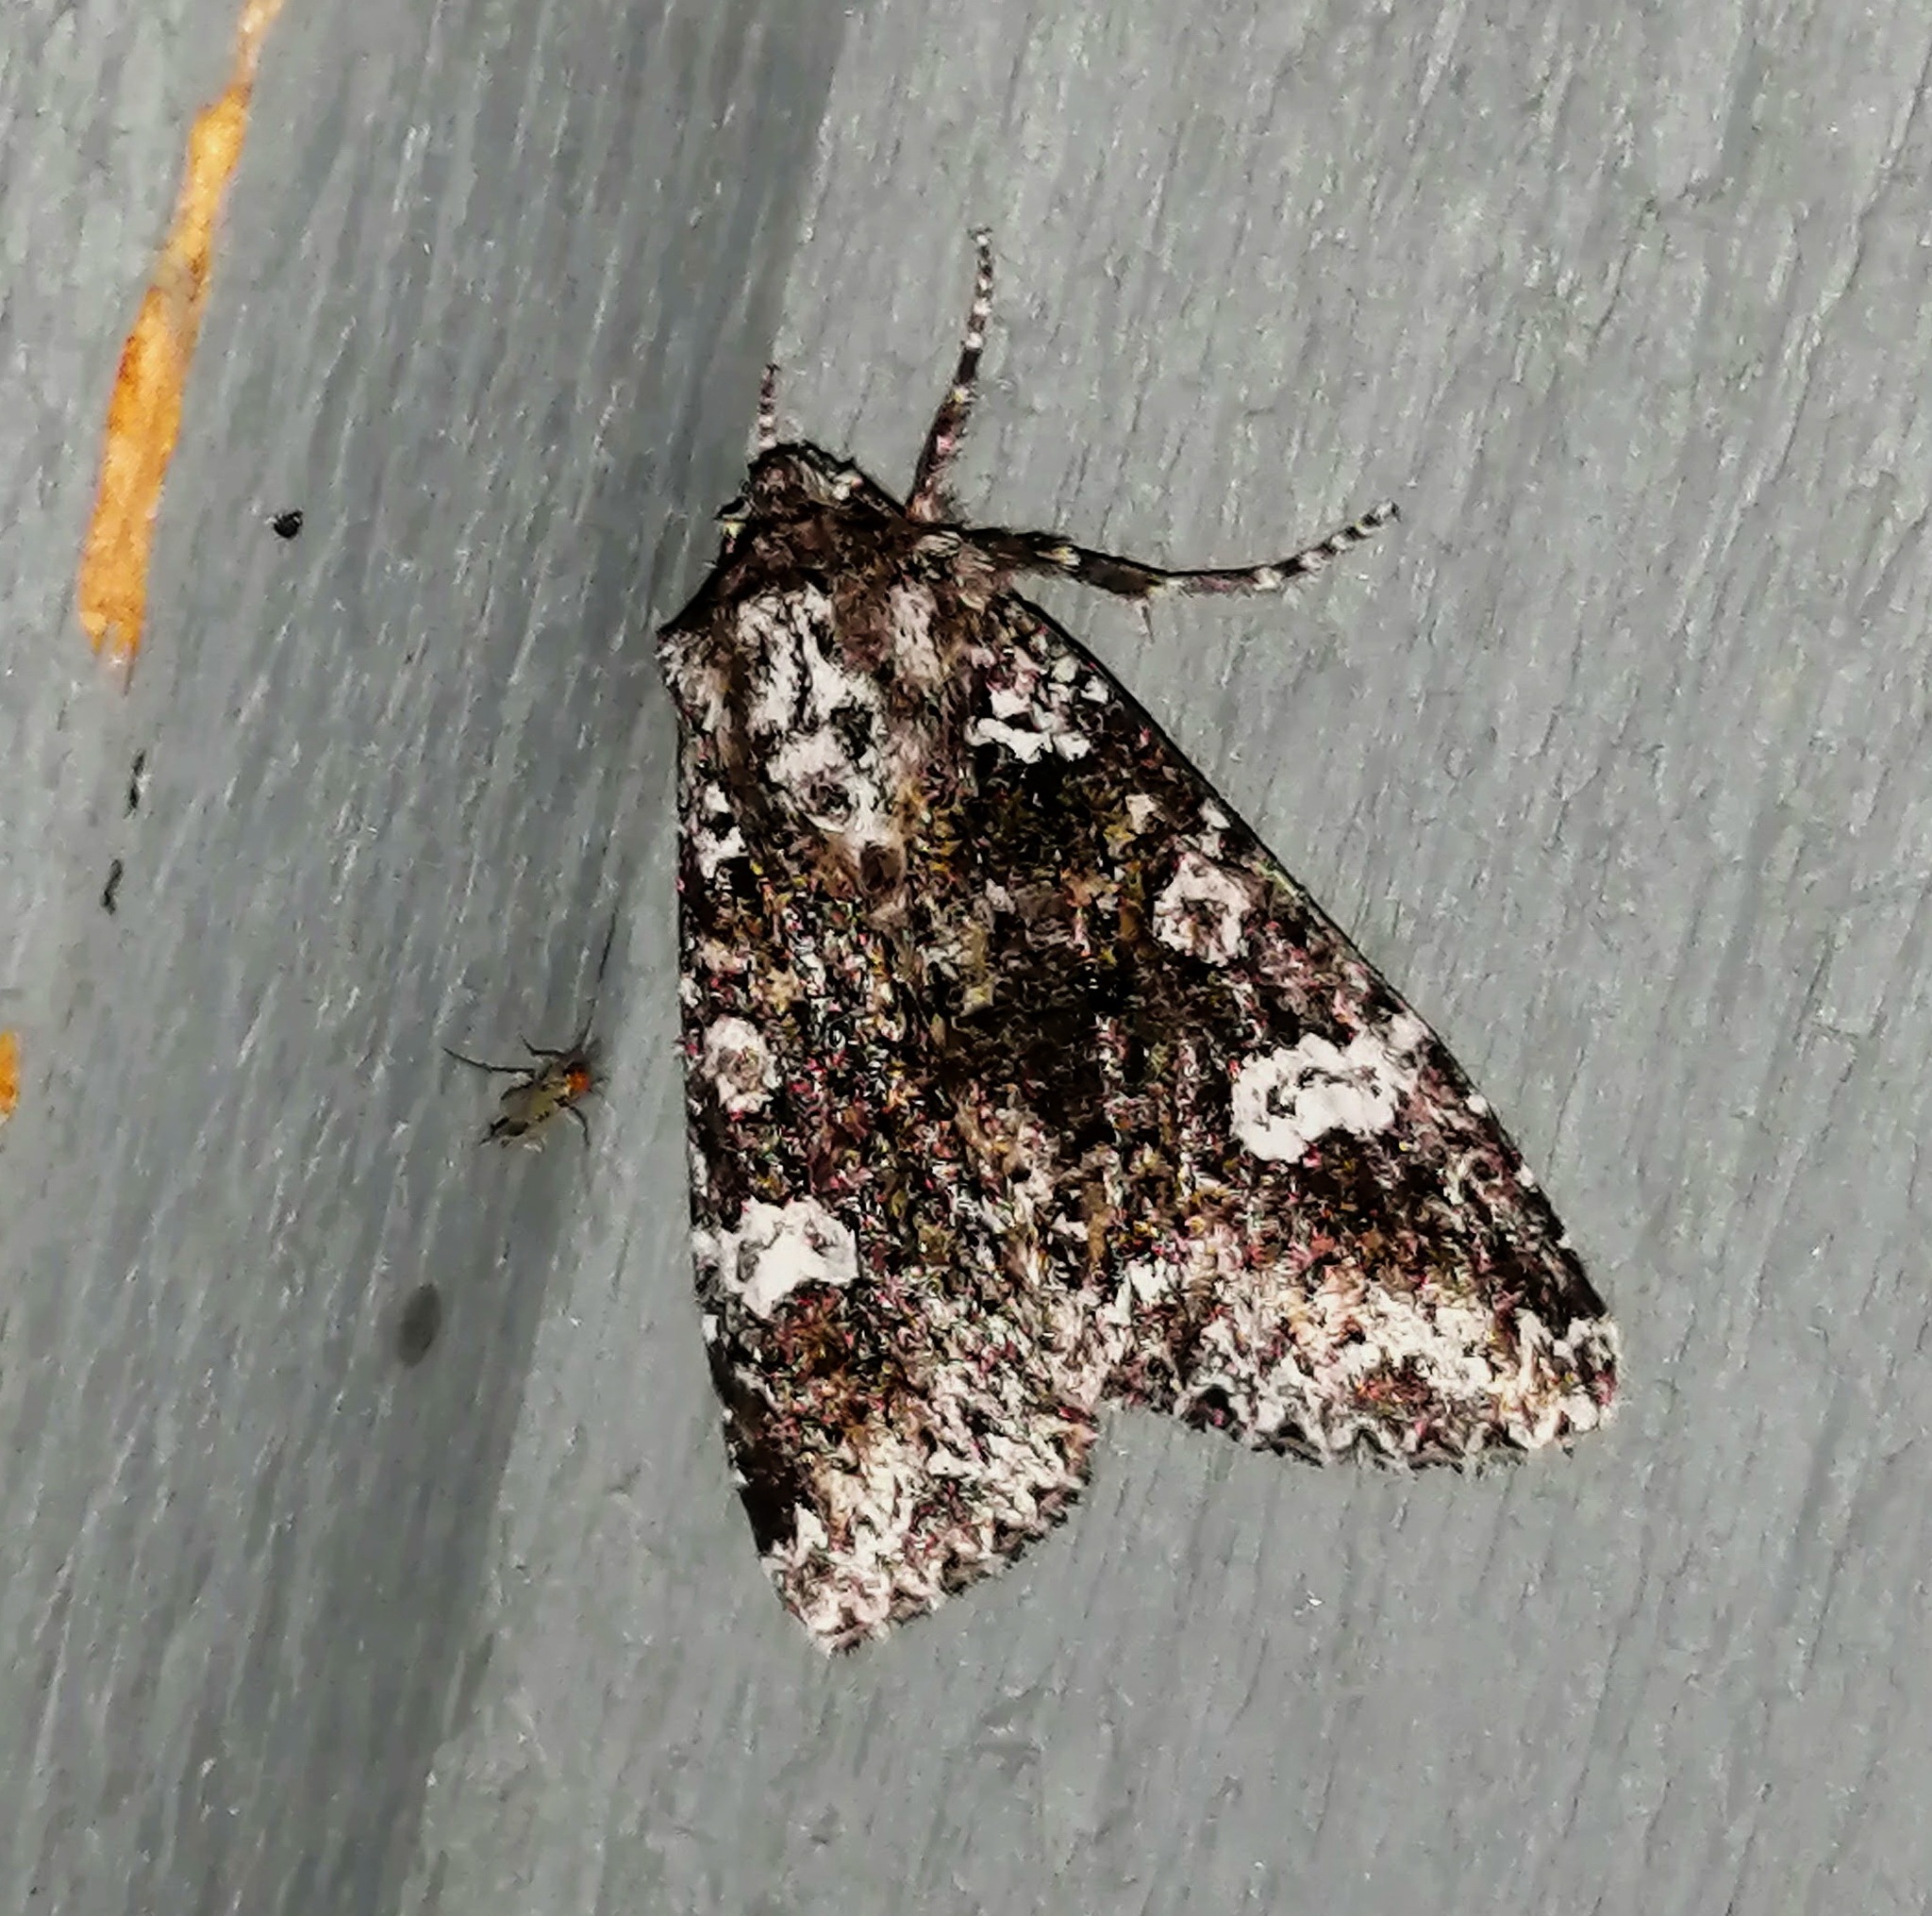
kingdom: Animalia
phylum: Arthropoda
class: Insecta
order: Lepidoptera
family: Noctuidae
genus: Melanchra
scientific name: Melanchra adjuncta
